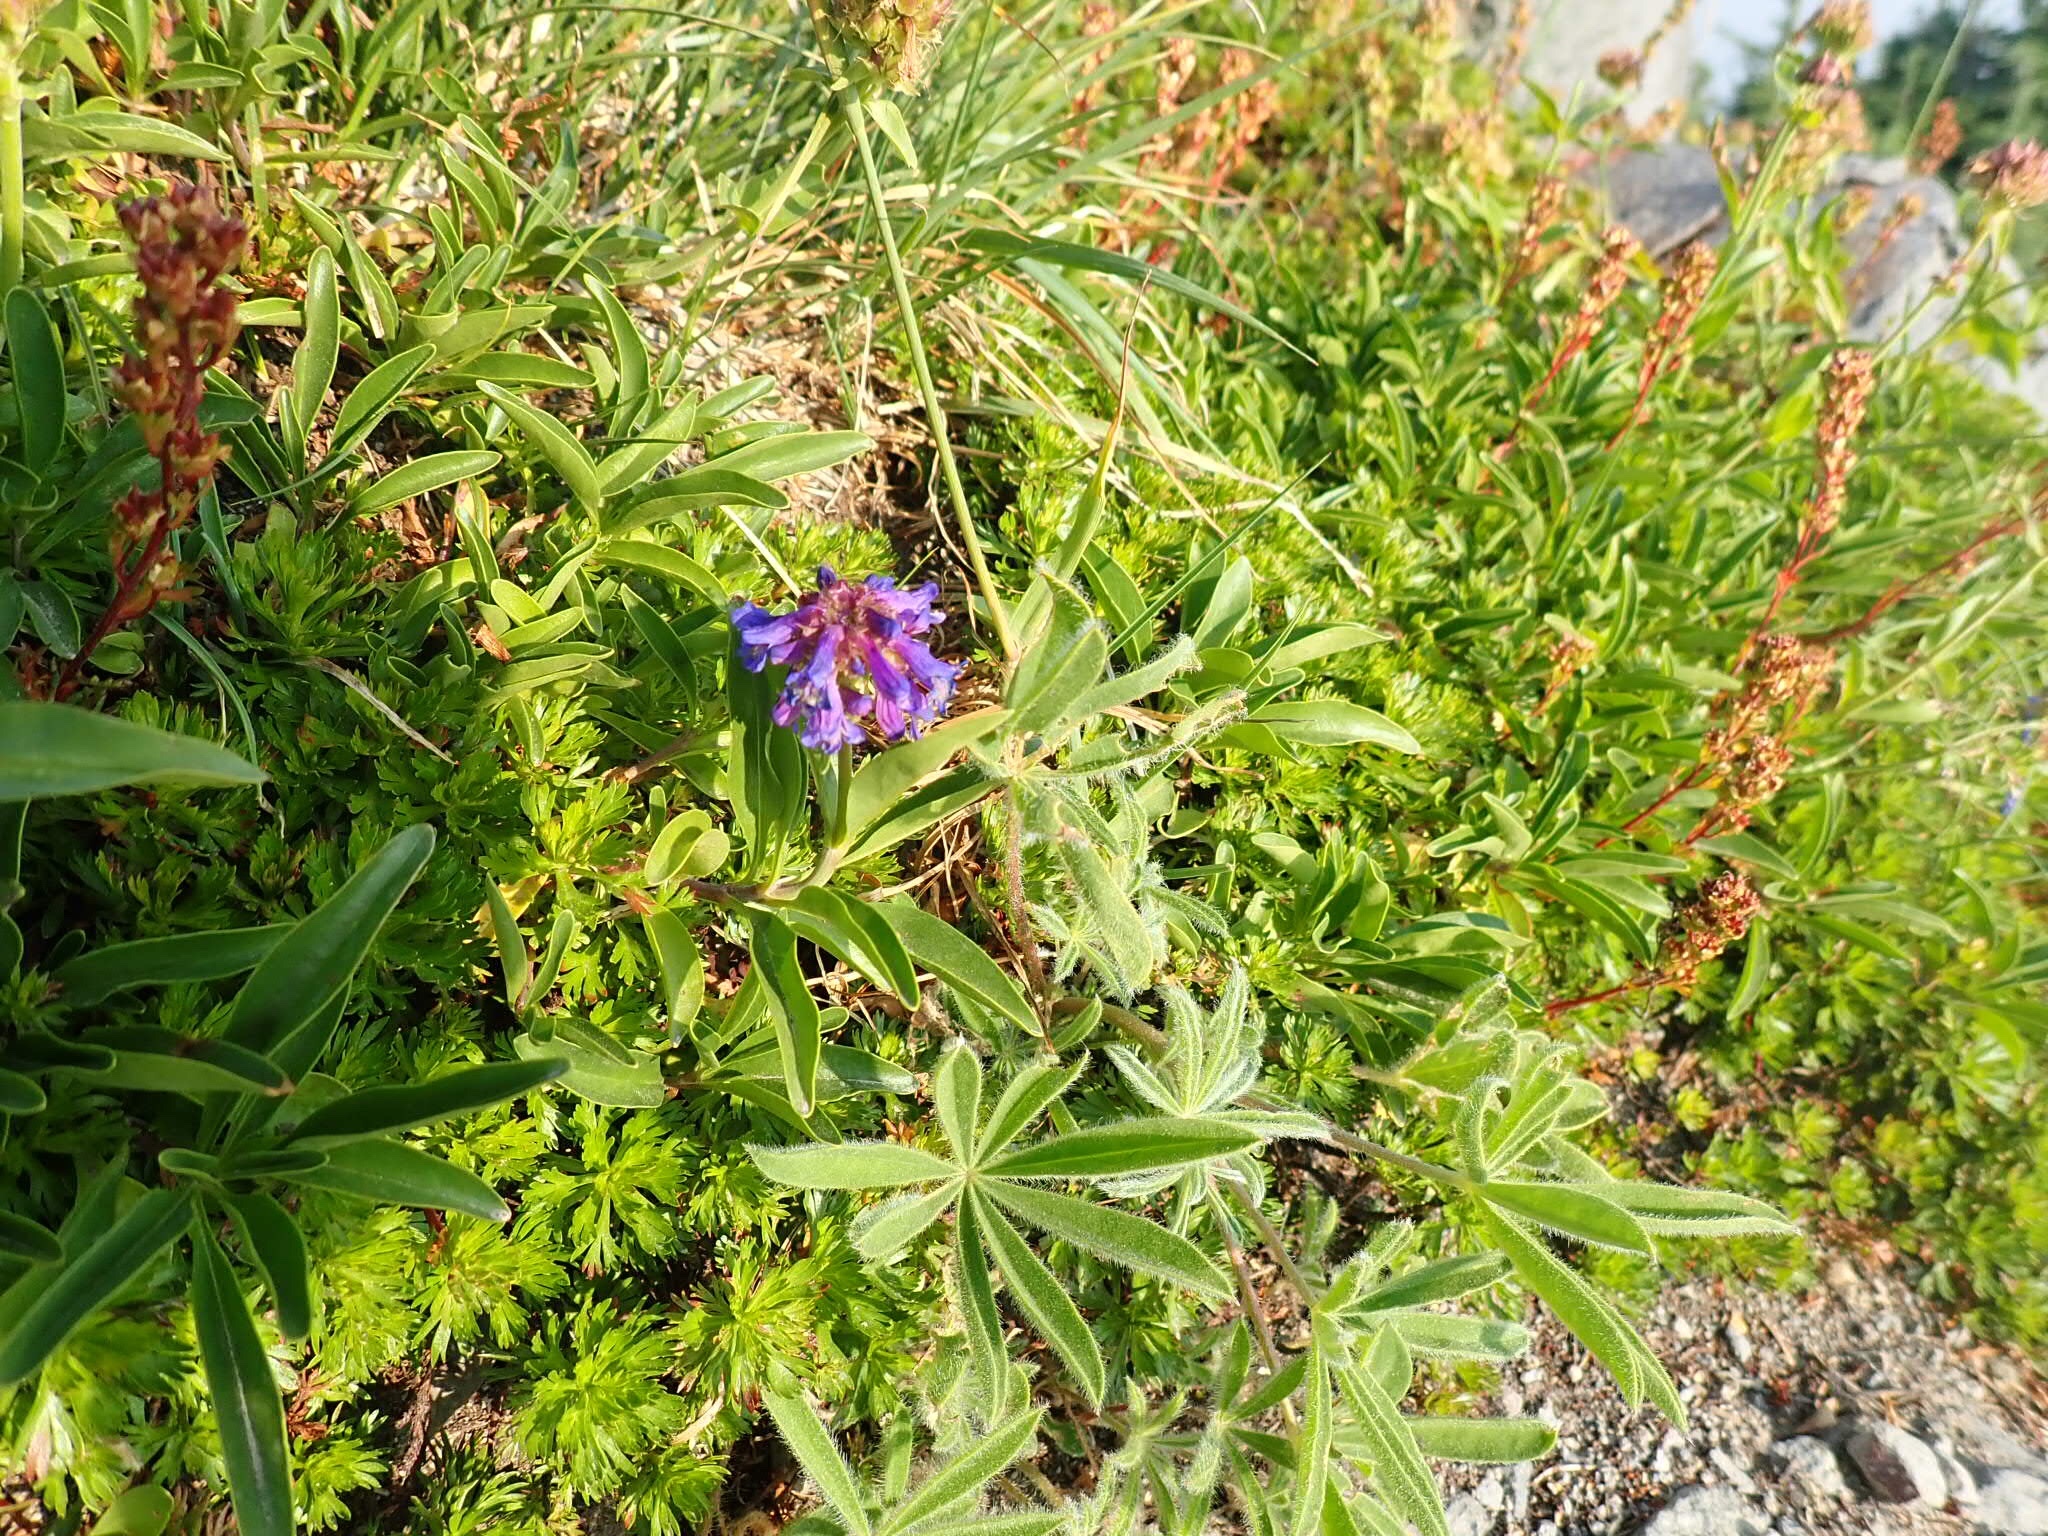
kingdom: Plantae
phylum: Tracheophyta
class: Magnoliopsida
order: Lamiales
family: Plantaginaceae
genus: Penstemon
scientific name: Penstemon procerus
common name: Small-flower penstemon
